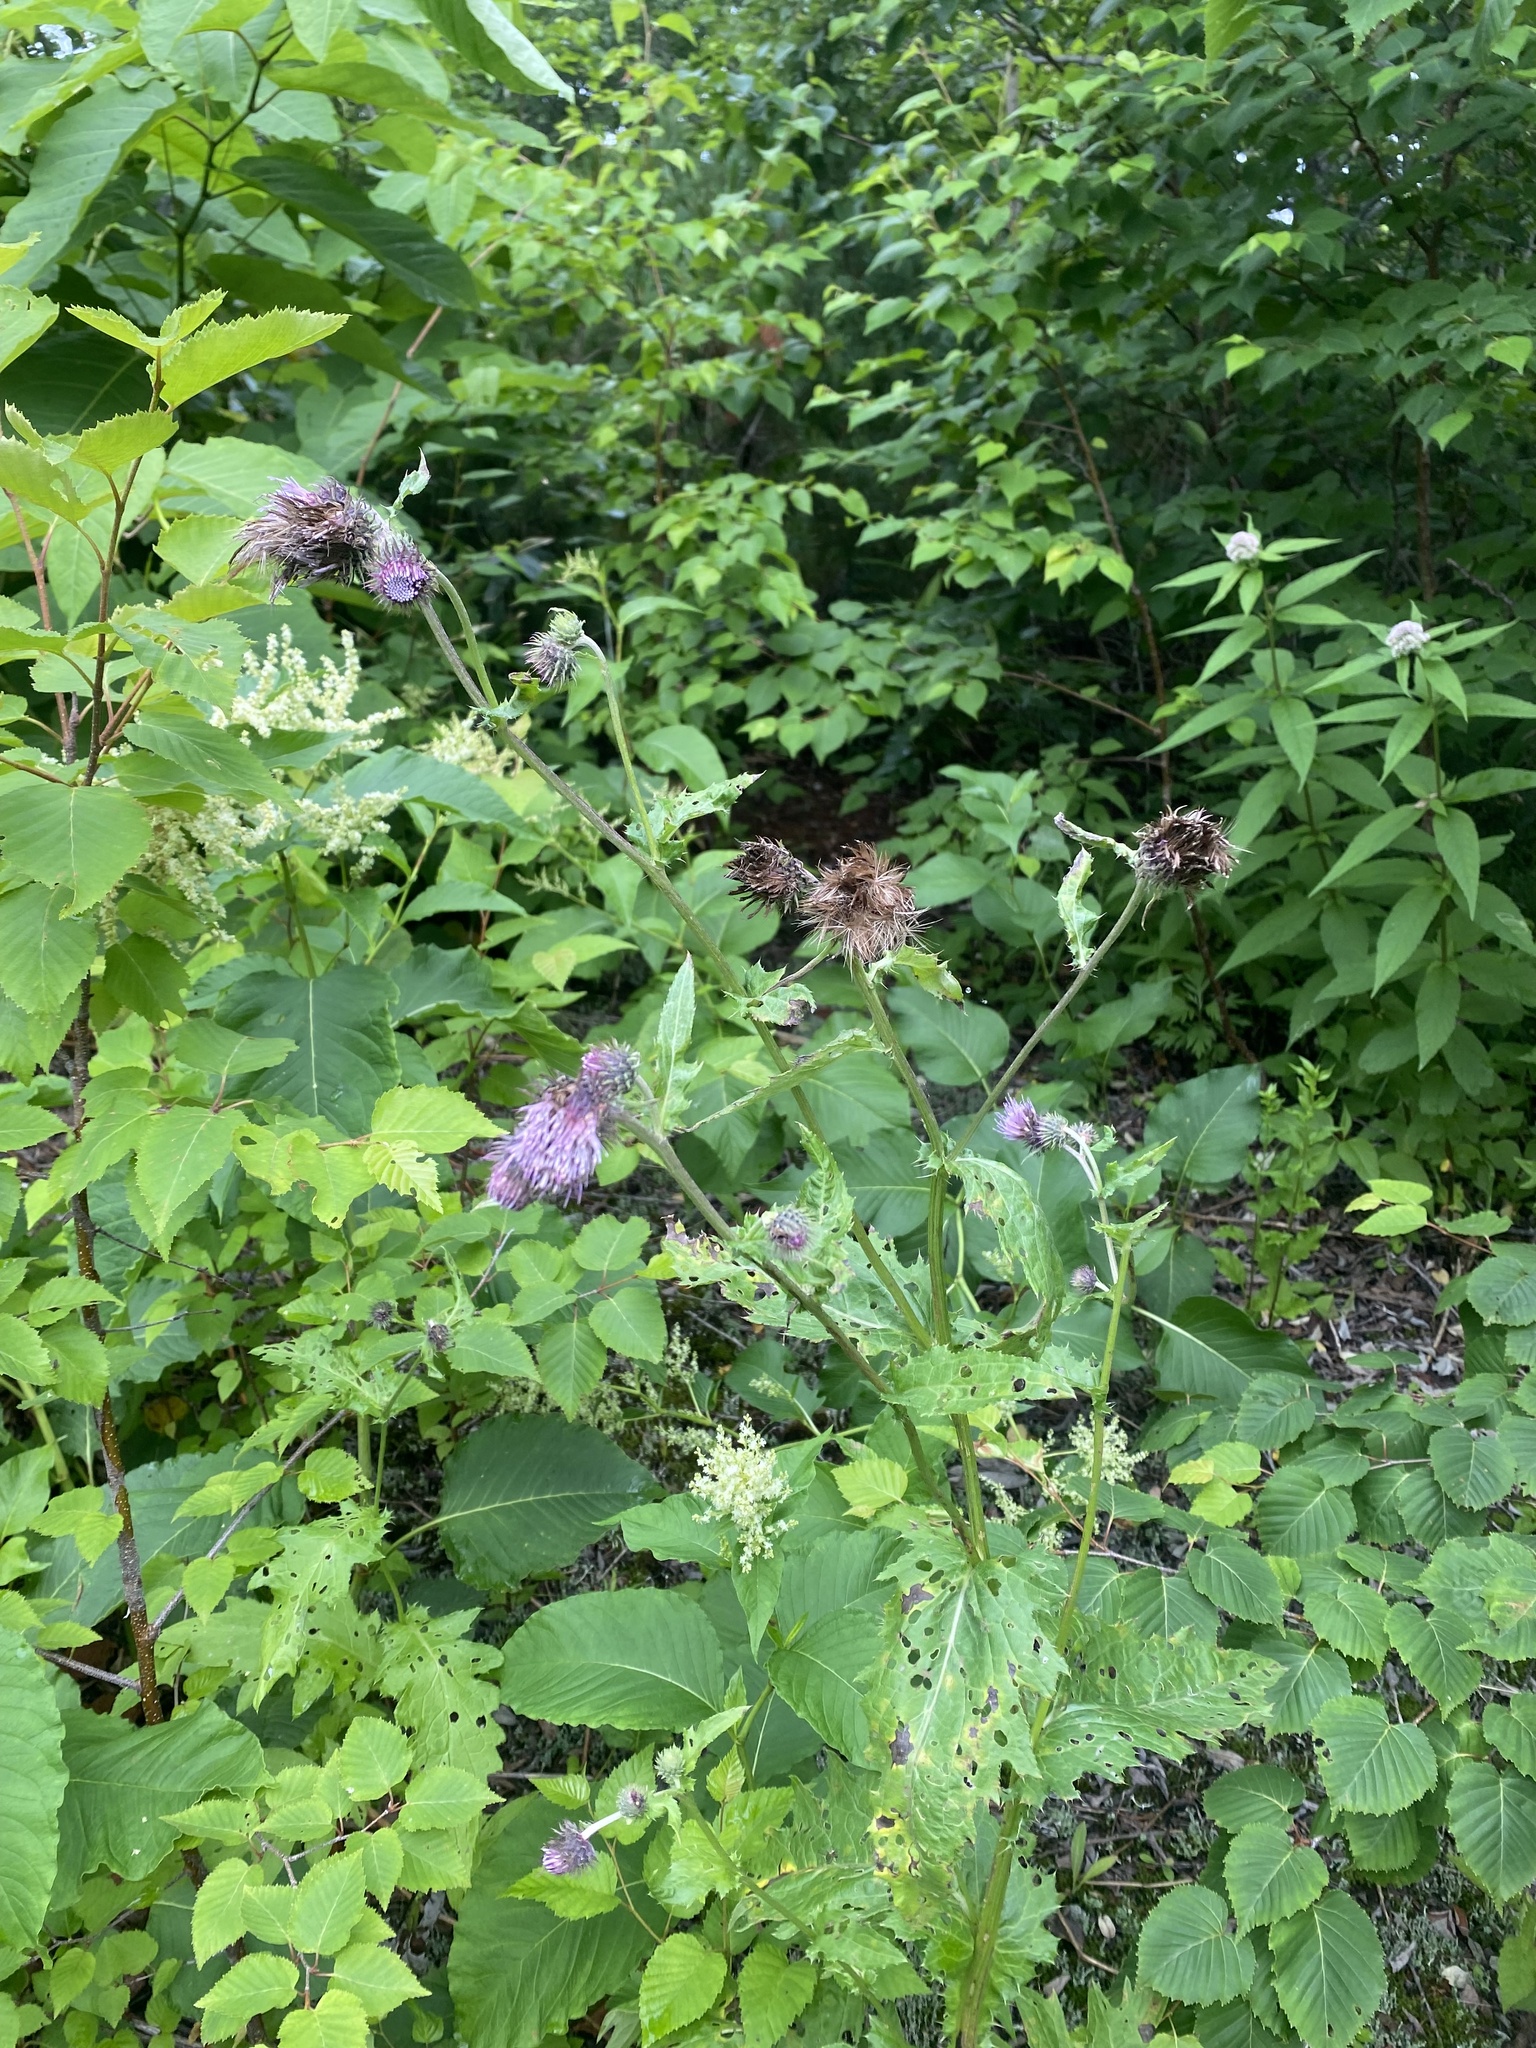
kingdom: Plantae
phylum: Tracheophyta
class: Magnoliopsida
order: Asterales
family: Asteraceae
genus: Cirsium
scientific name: Cirsium kamtschaticum
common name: Kamchatka thistle
